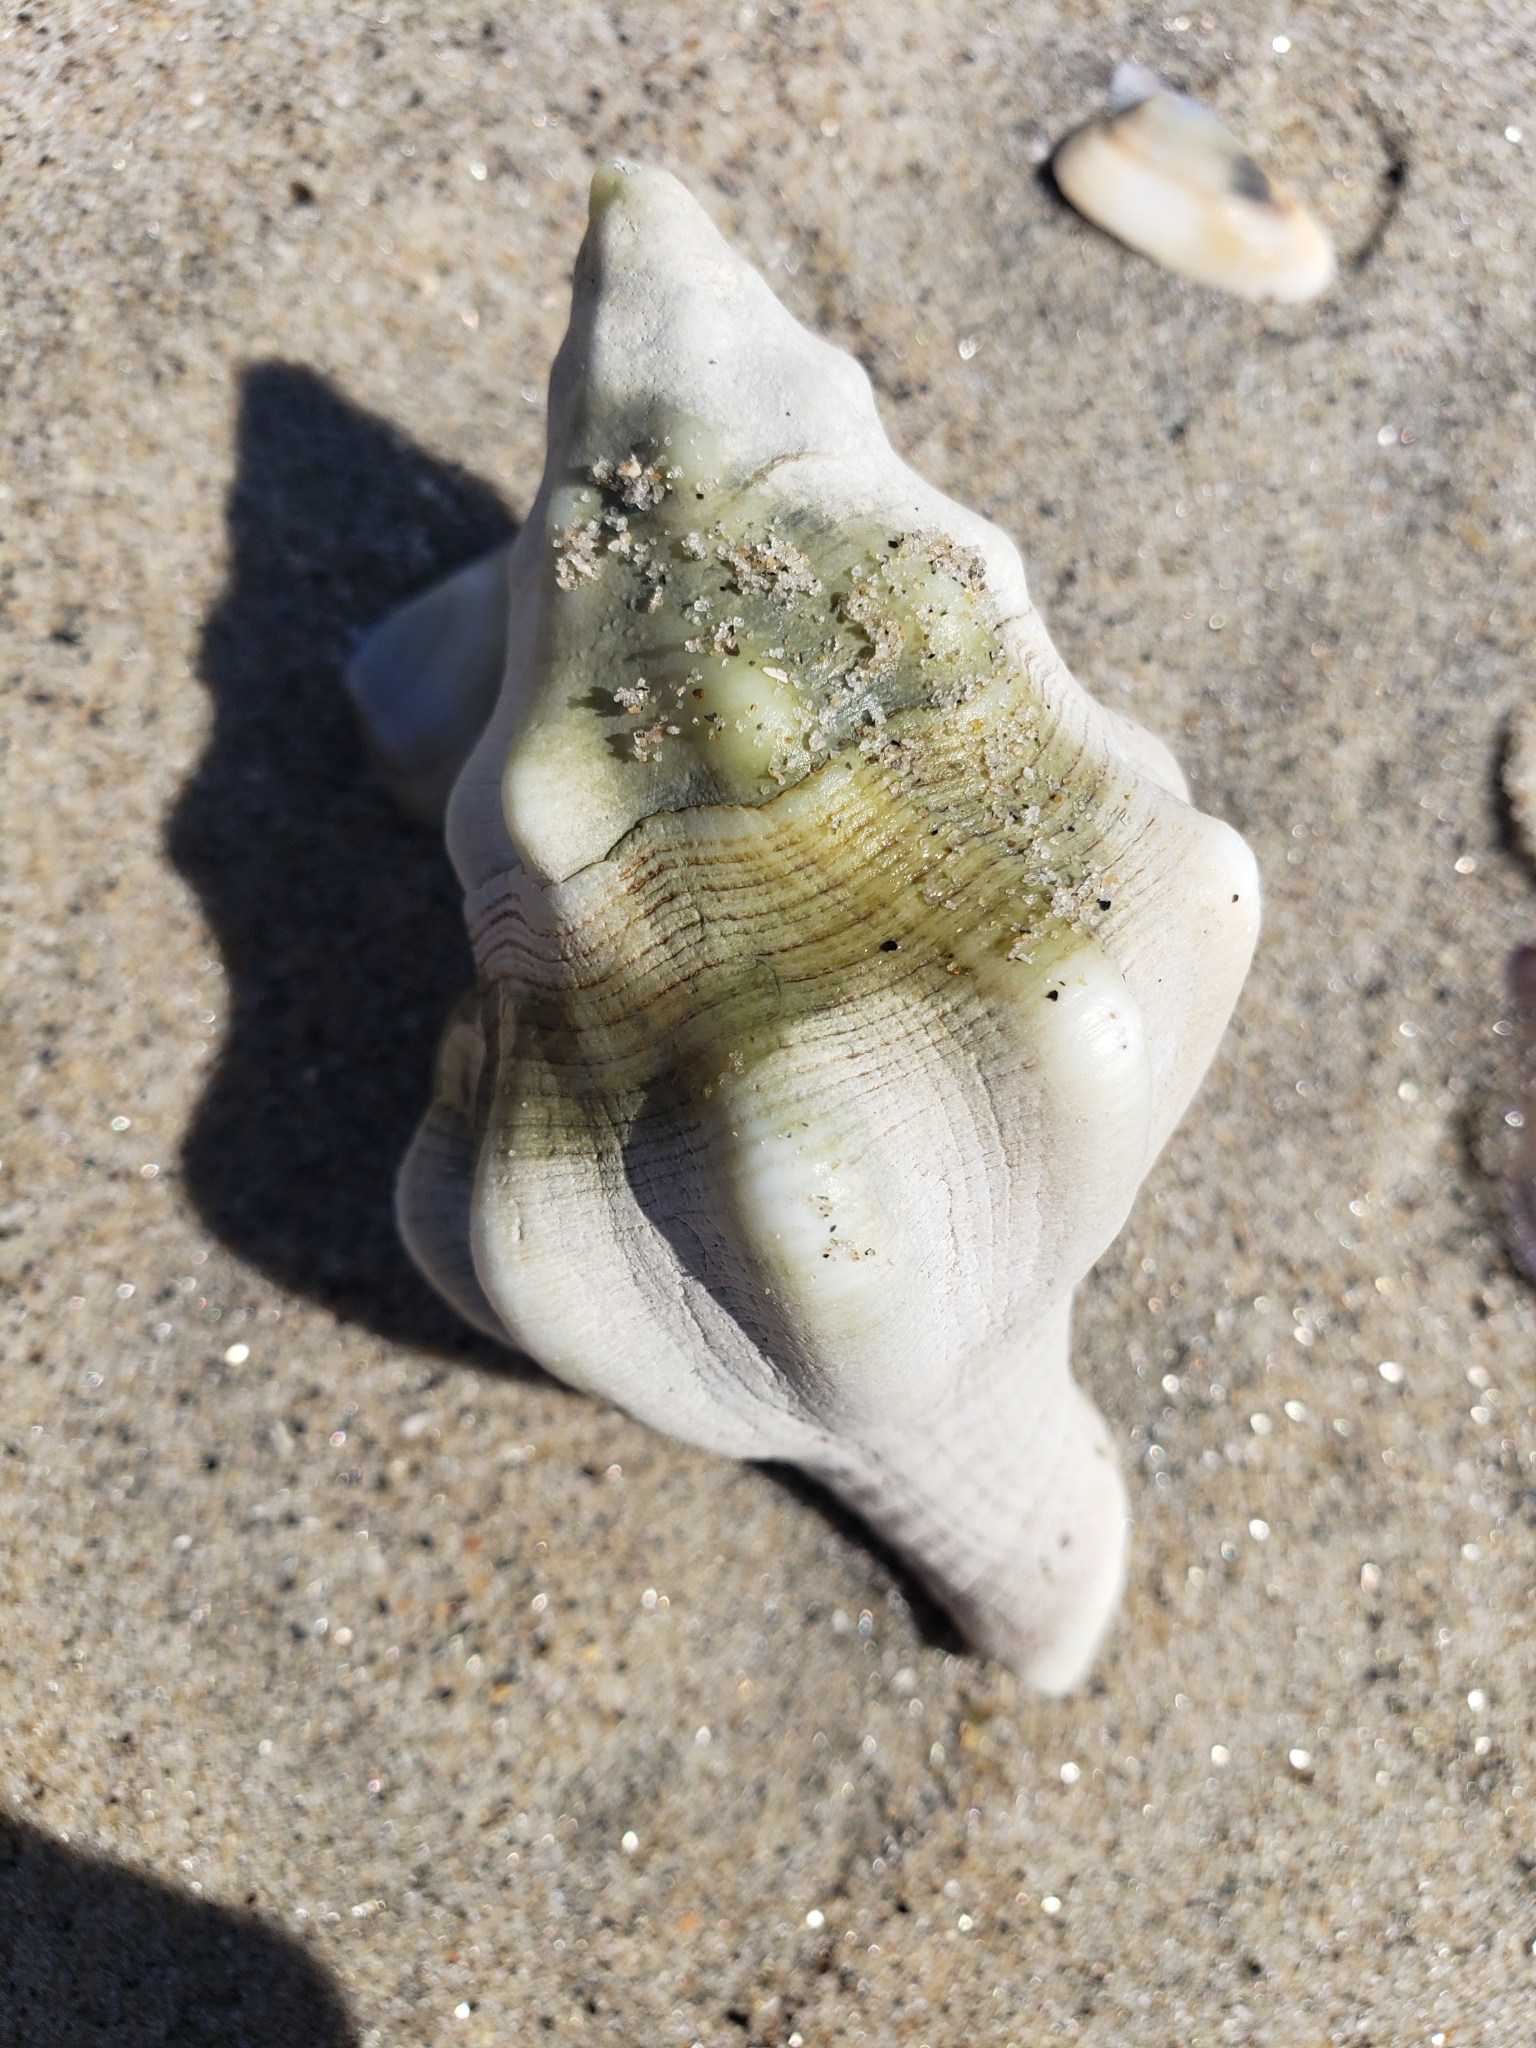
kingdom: Animalia
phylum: Mollusca
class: Gastropoda
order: Neogastropoda
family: Austrosiphonidae
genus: Kelletia
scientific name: Kelletia kelletii
